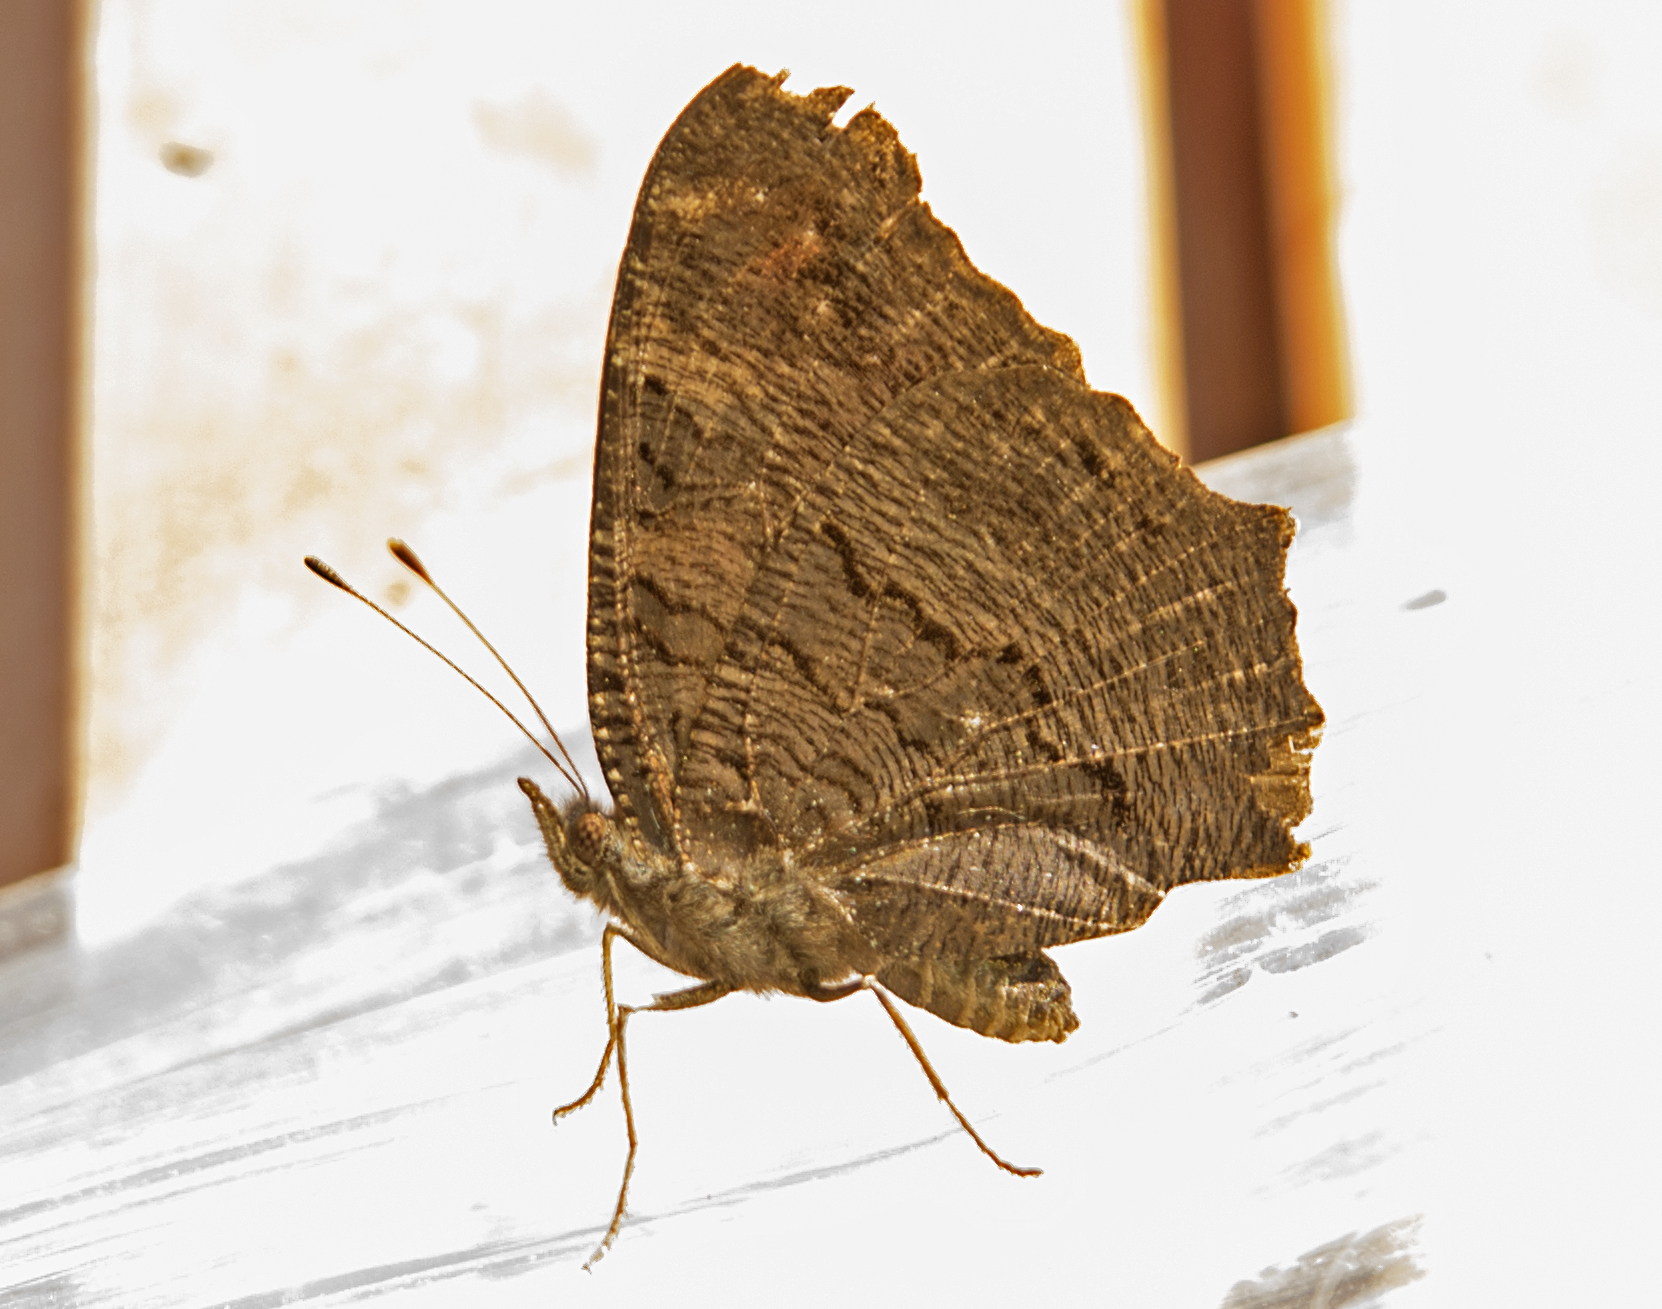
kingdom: Animalia
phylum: Arthropoda
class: Insecta
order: Lepidoptera
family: Nymphalidae
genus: Aglais
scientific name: Aglais io
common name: Peacock
